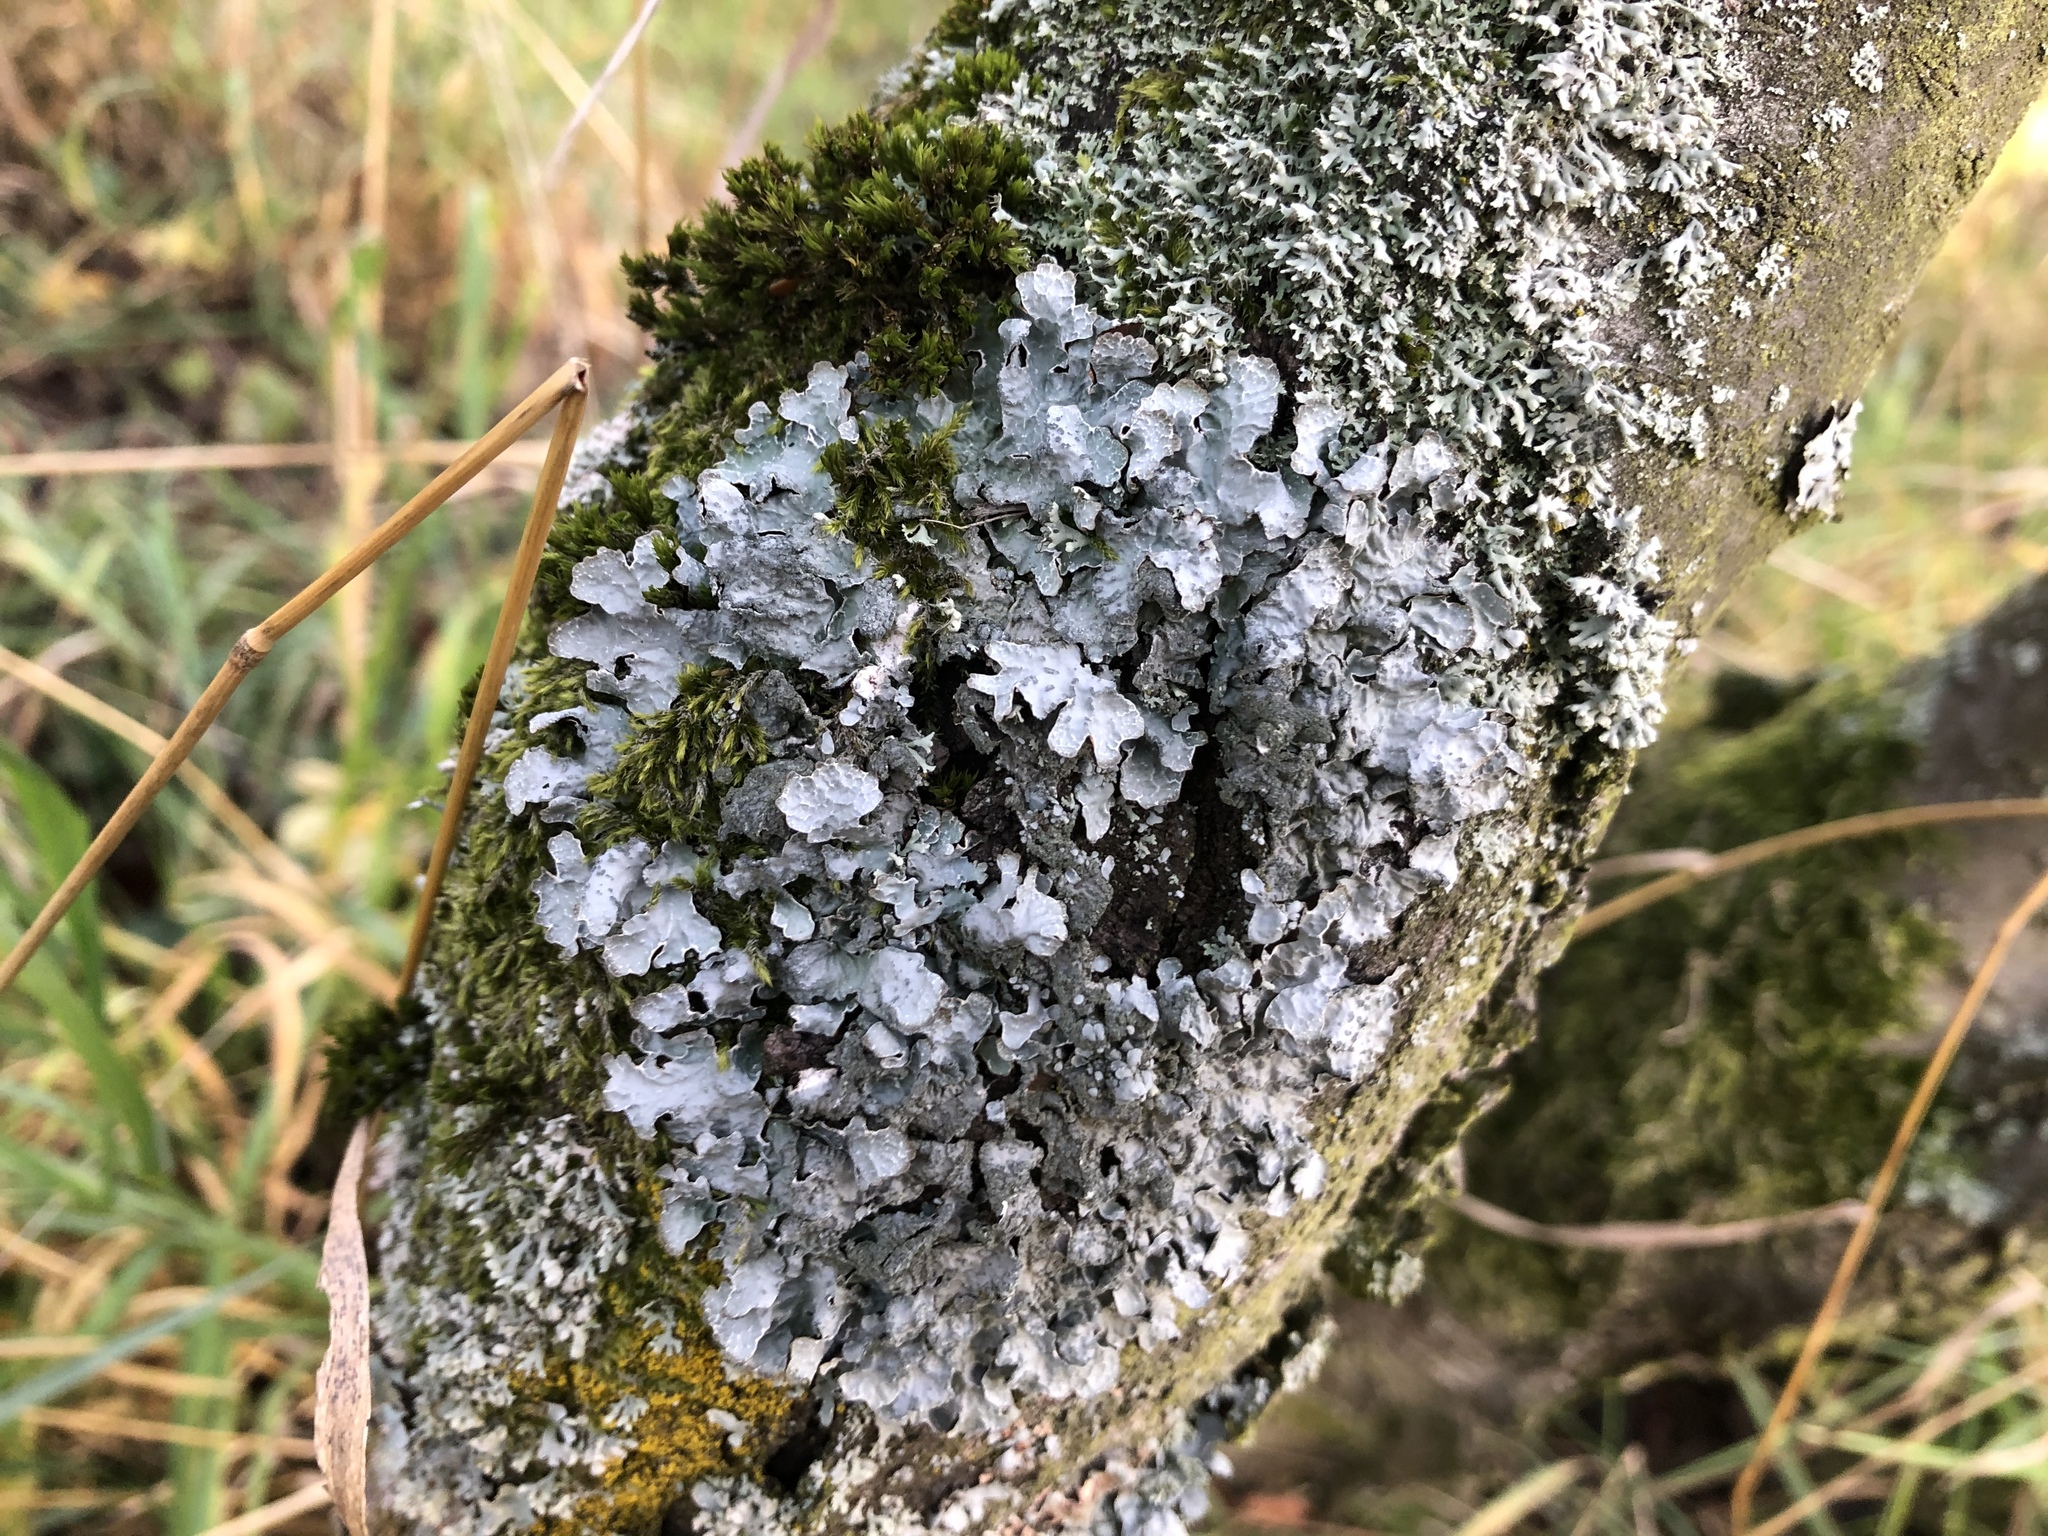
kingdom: Fungi
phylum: Ascomycota
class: Lecanoromycetes
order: Lecanorales
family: Parmeliaceae
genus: Parmelia
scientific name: Parmelia sulcata
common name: Netted shield lichen
